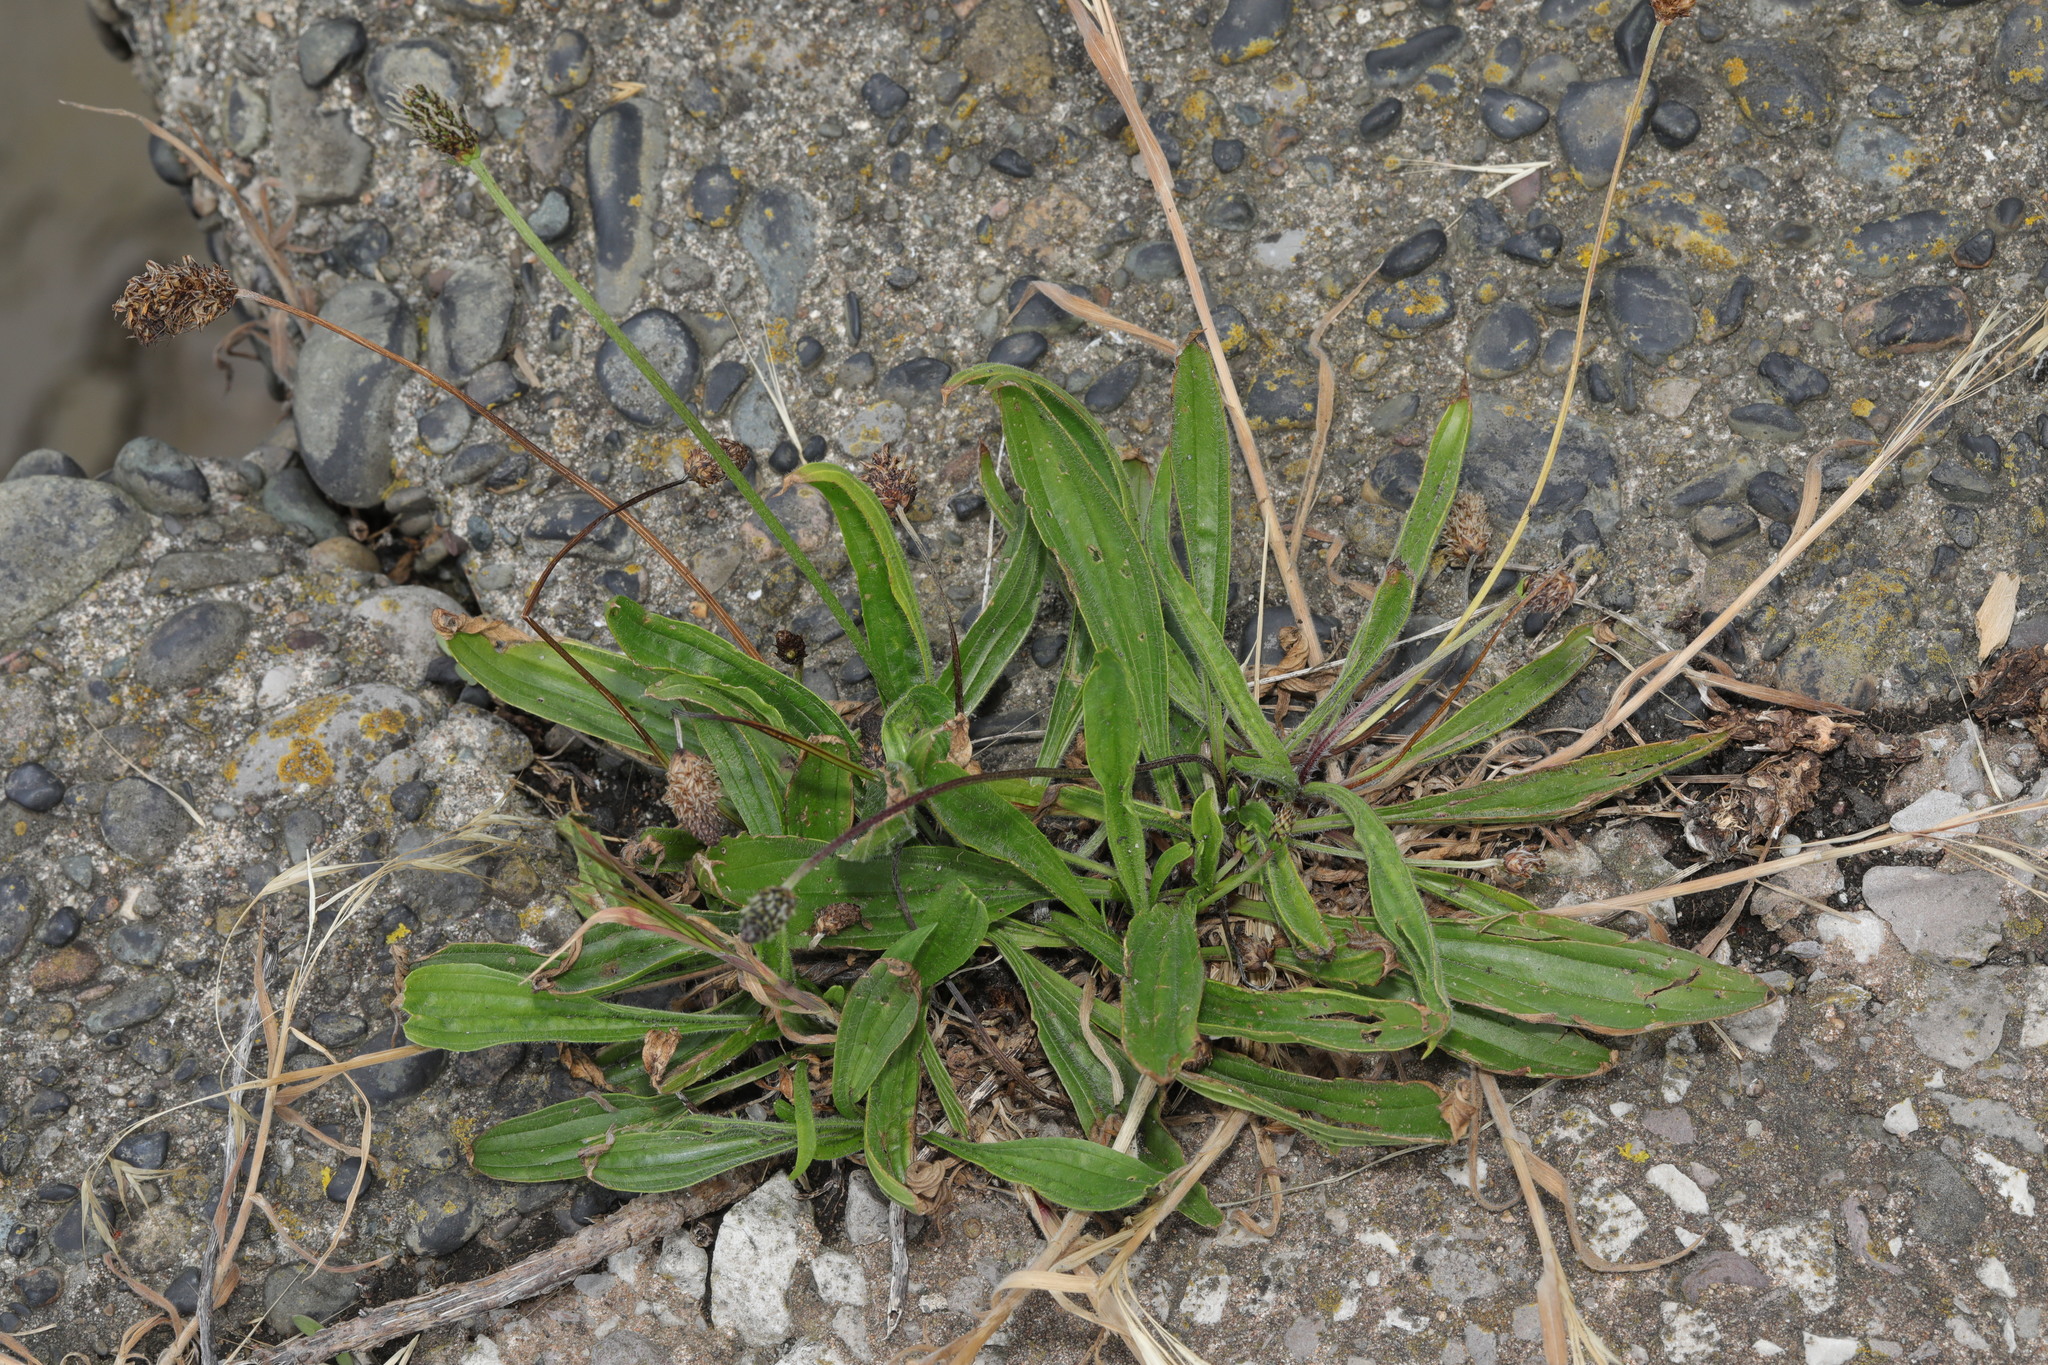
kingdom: Plantae
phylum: Tracheophyta
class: Magnoliopsida
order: Lamiales
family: Plantaginaceae
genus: Plantago
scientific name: Plantago lanceolata
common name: Ribwort plantain
